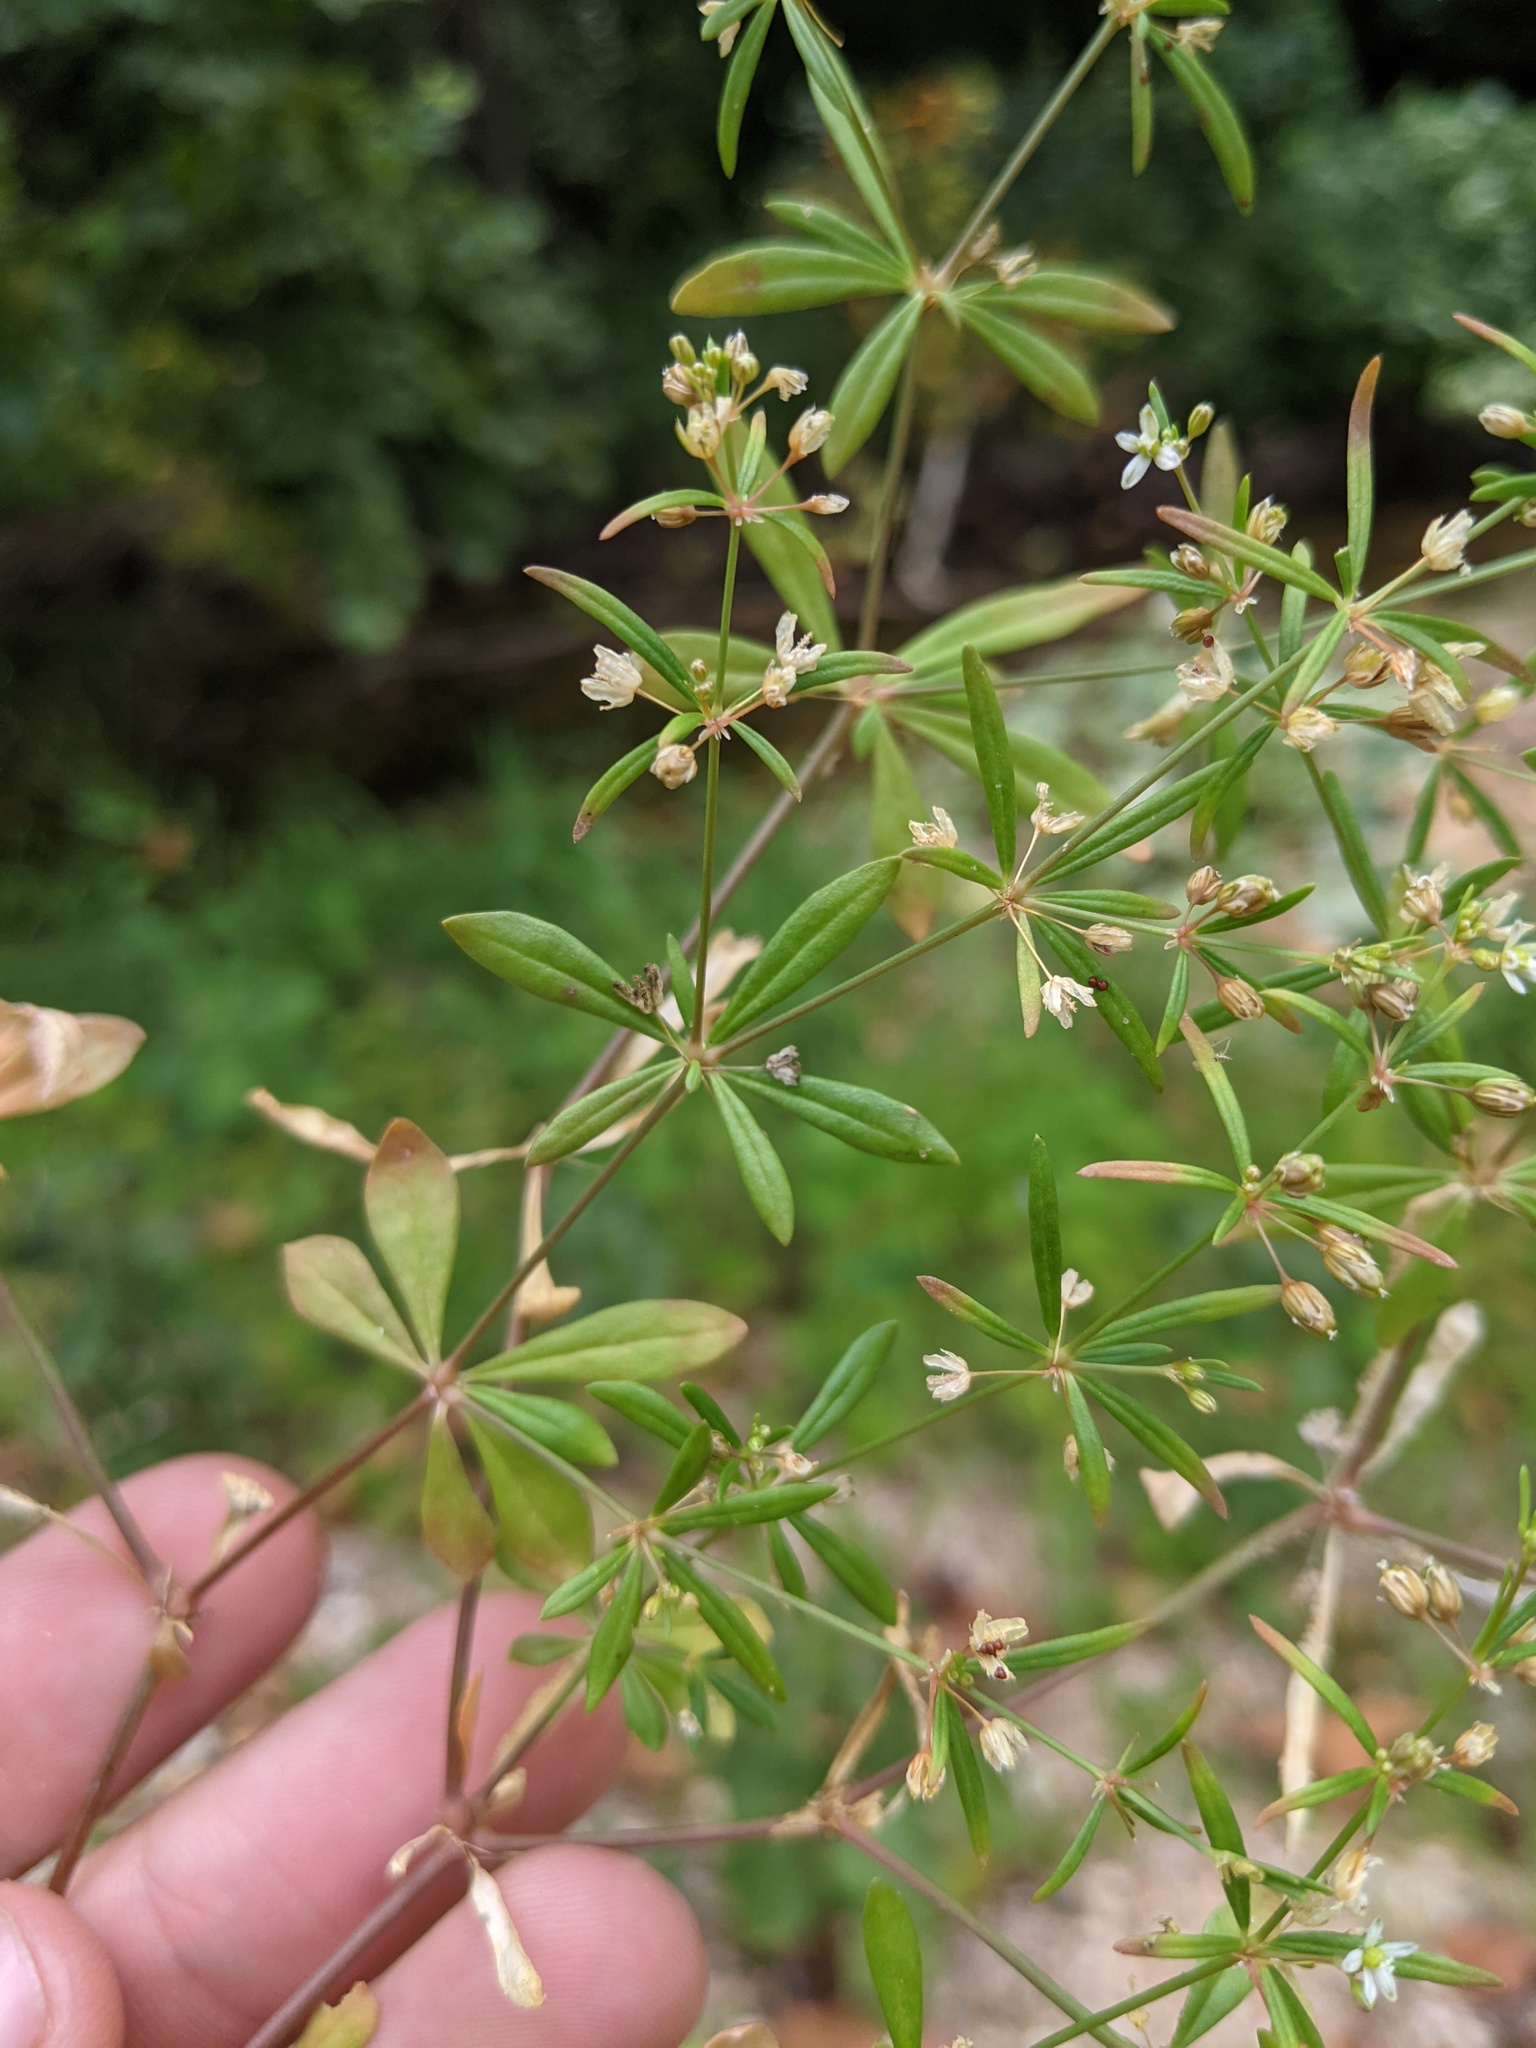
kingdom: Plantae
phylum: Tracheophyta
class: Magnoliopsida
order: Caryophyllales
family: Molluginaceae
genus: Mollugo
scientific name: Mollugo verticillata
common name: Green carpetweed
